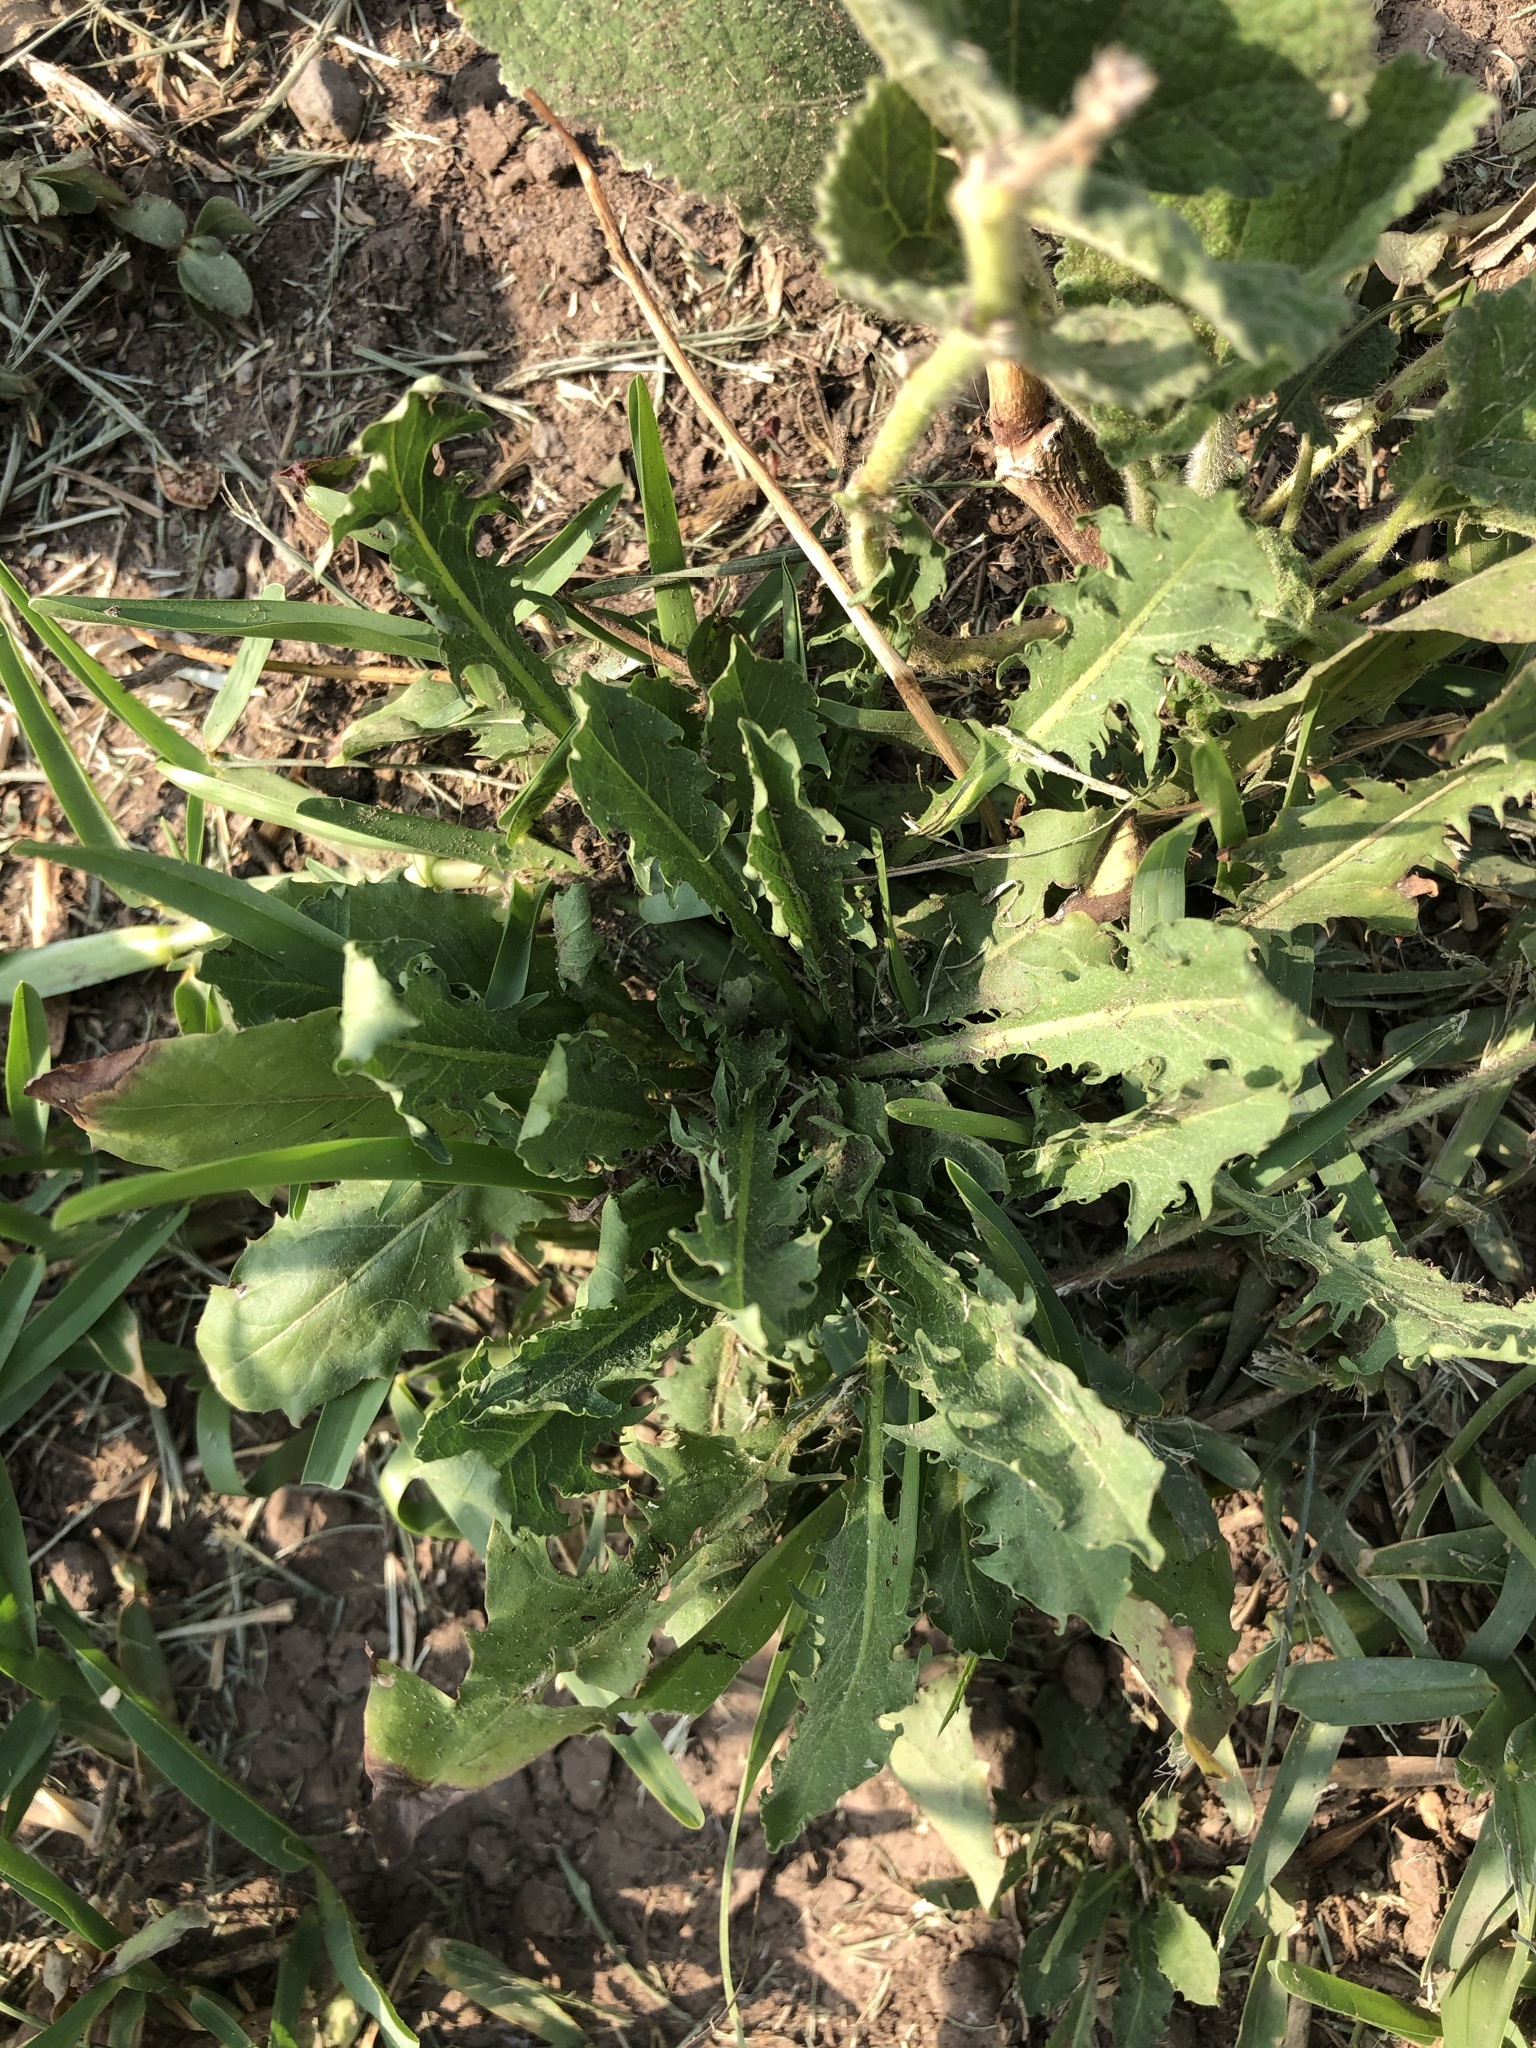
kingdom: Plantae
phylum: Tracheophyta
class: Magnoliopsida
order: Asterales
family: Asteraceae
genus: Taraxacum
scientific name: Taraxacum officinale
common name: Common dandelion
